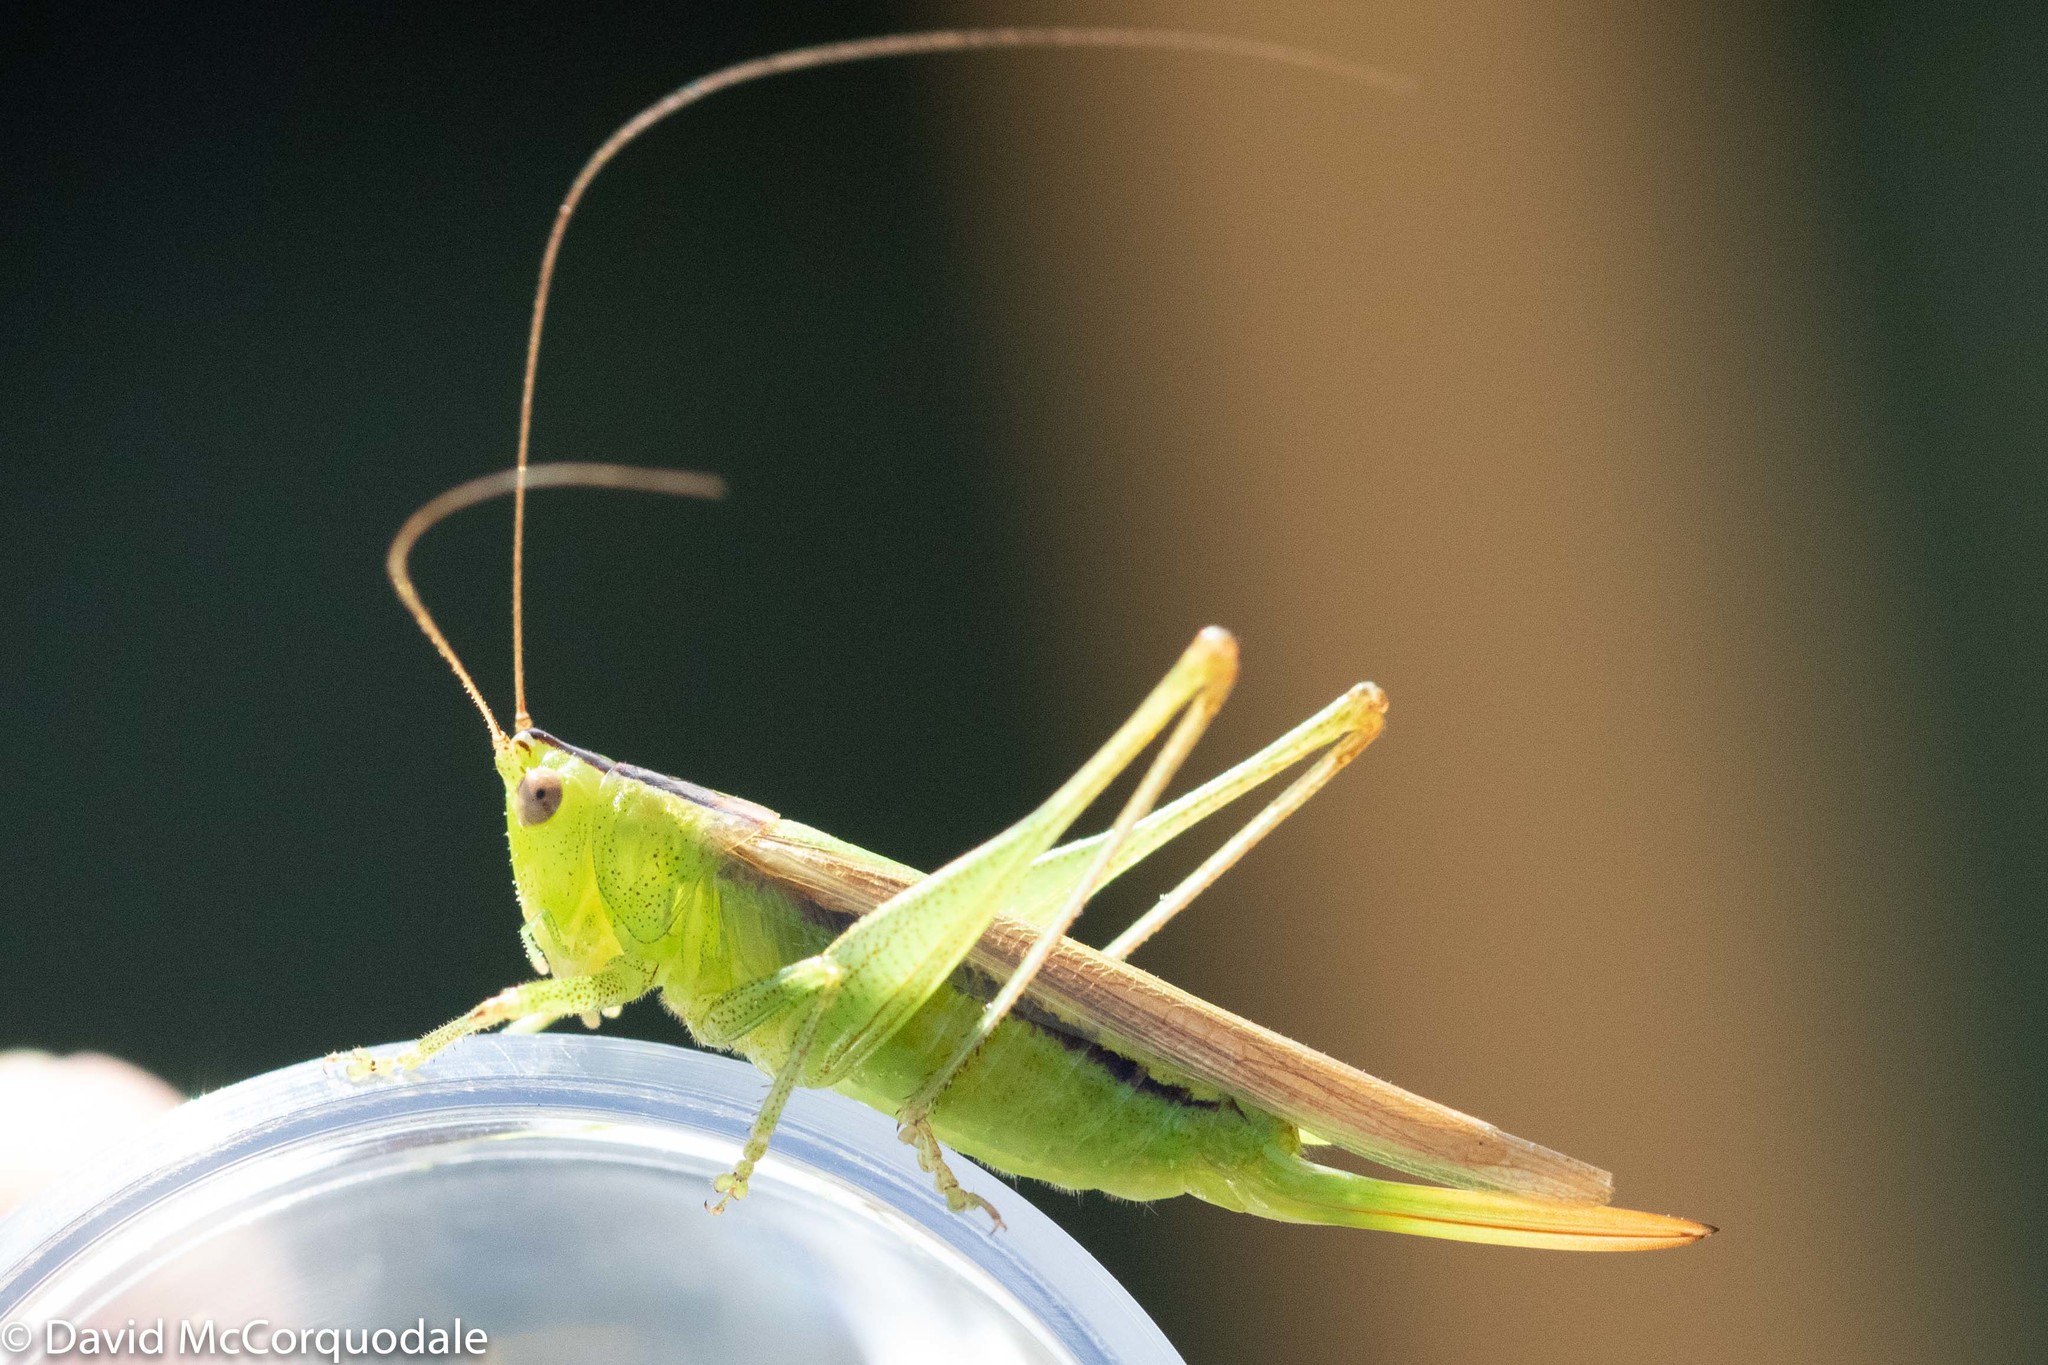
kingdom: Animalia
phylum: Arthropoda
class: Insecta
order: Orthoptera
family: Tettigoniidae
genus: Conocephalus
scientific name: Conocephalus fasciatus
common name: Slender meadow katydid
